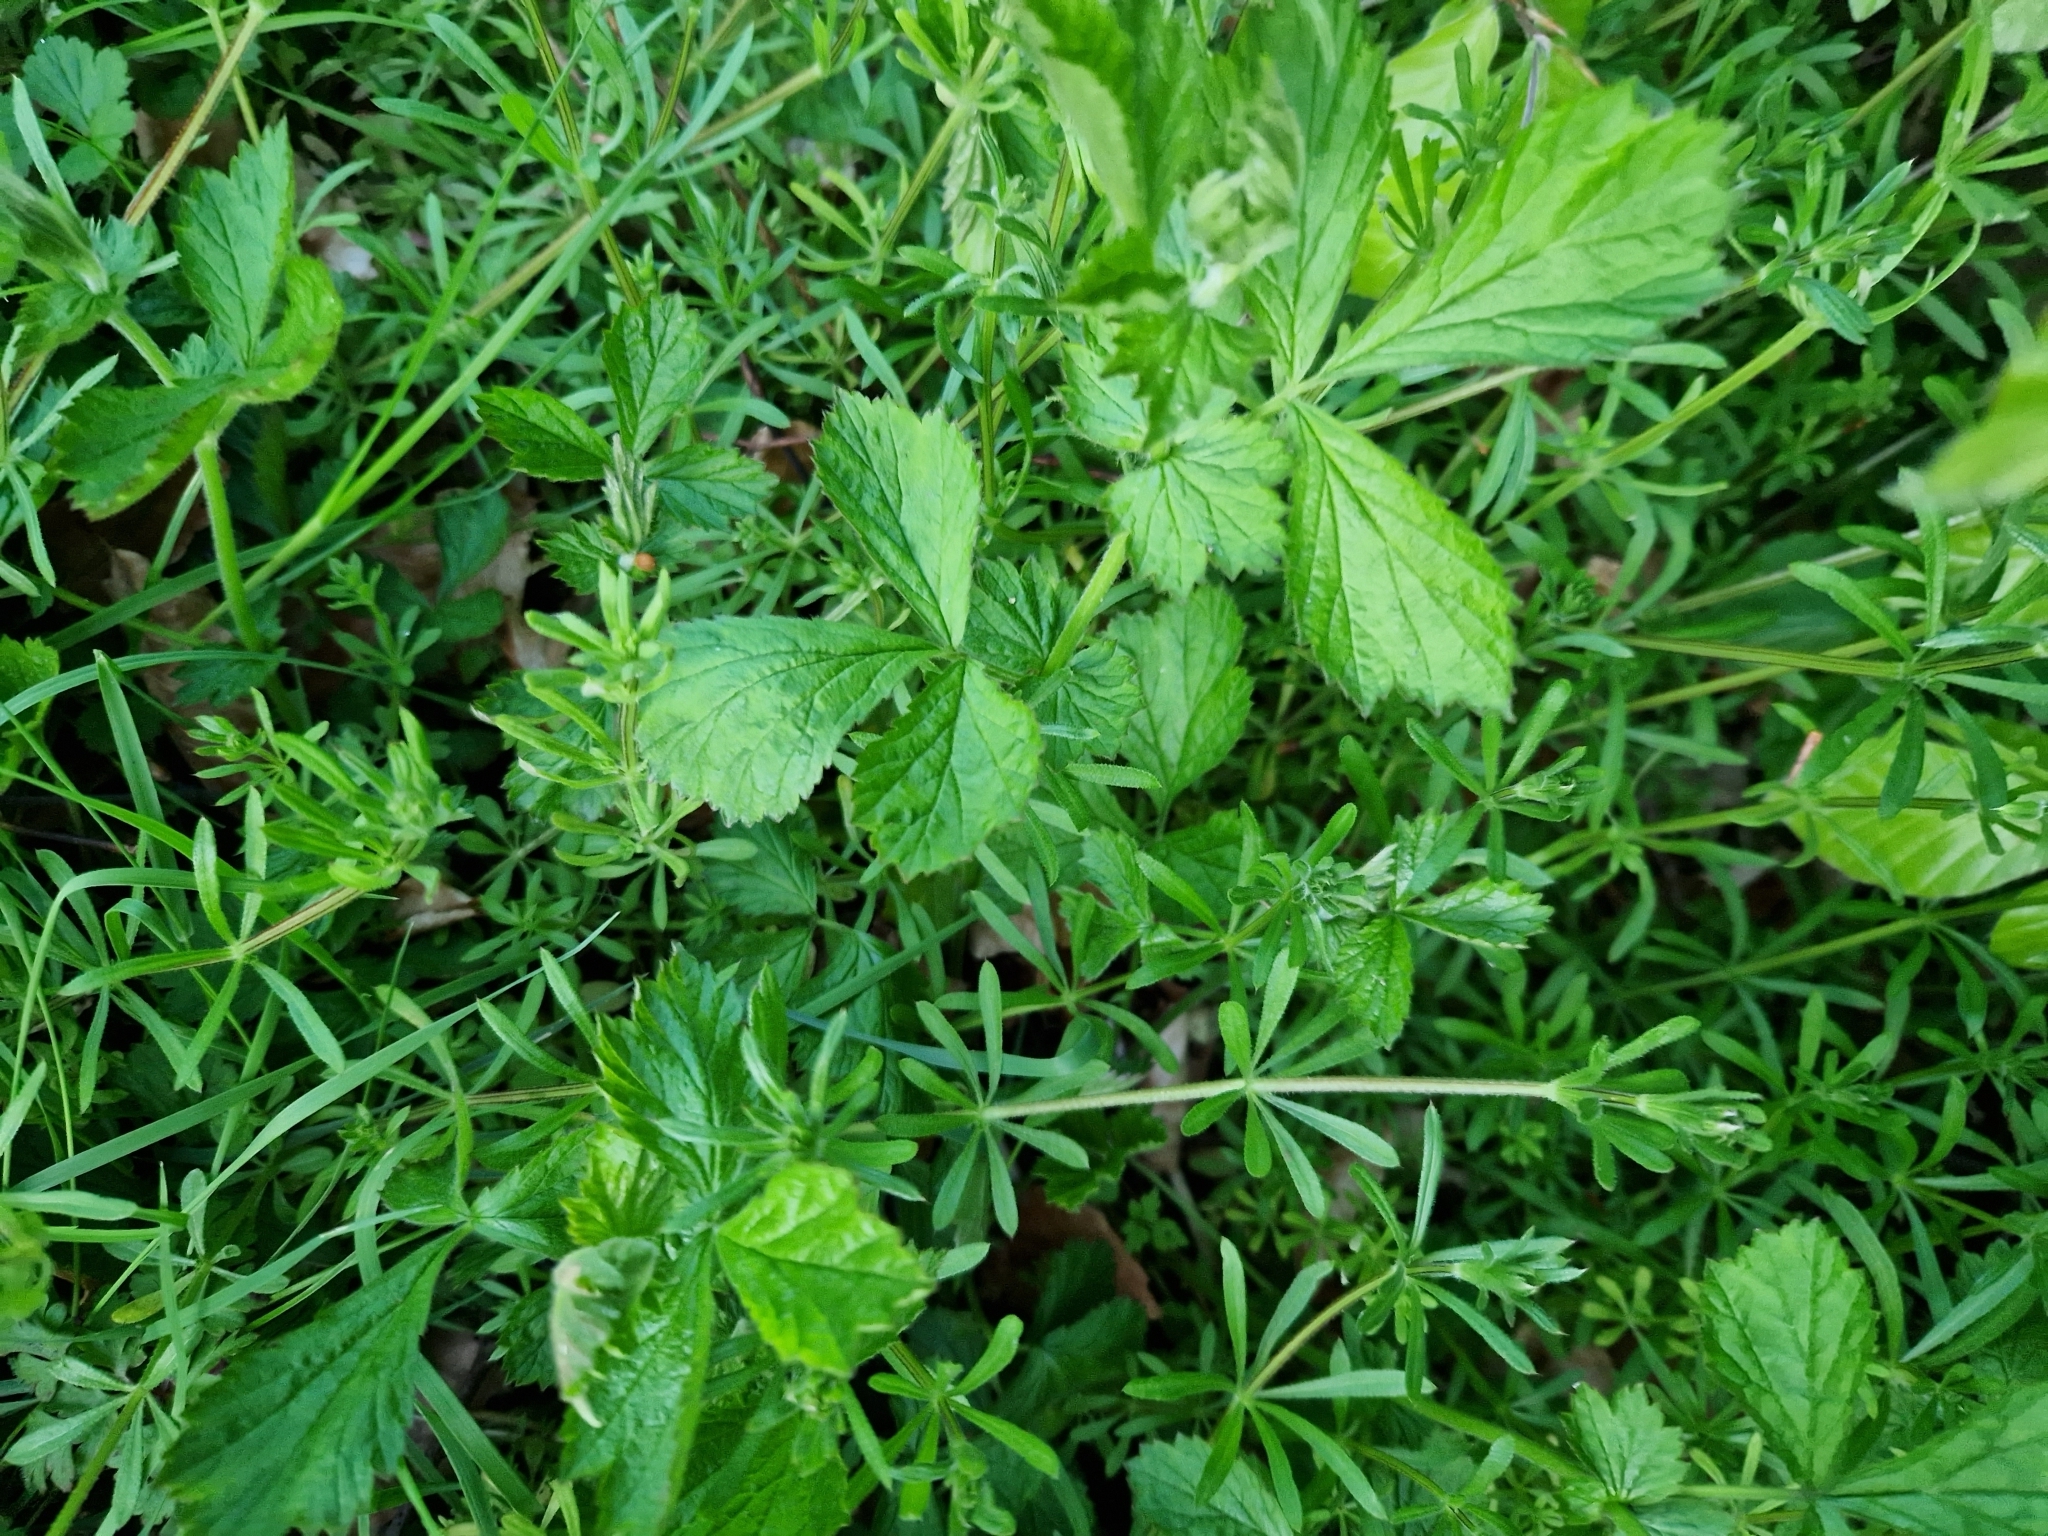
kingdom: Plantae
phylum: Tracheophyta
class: Magnoliopsida
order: Rosales
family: Rosaceae
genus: Geum
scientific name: Geum urbanum
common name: Wood avens
